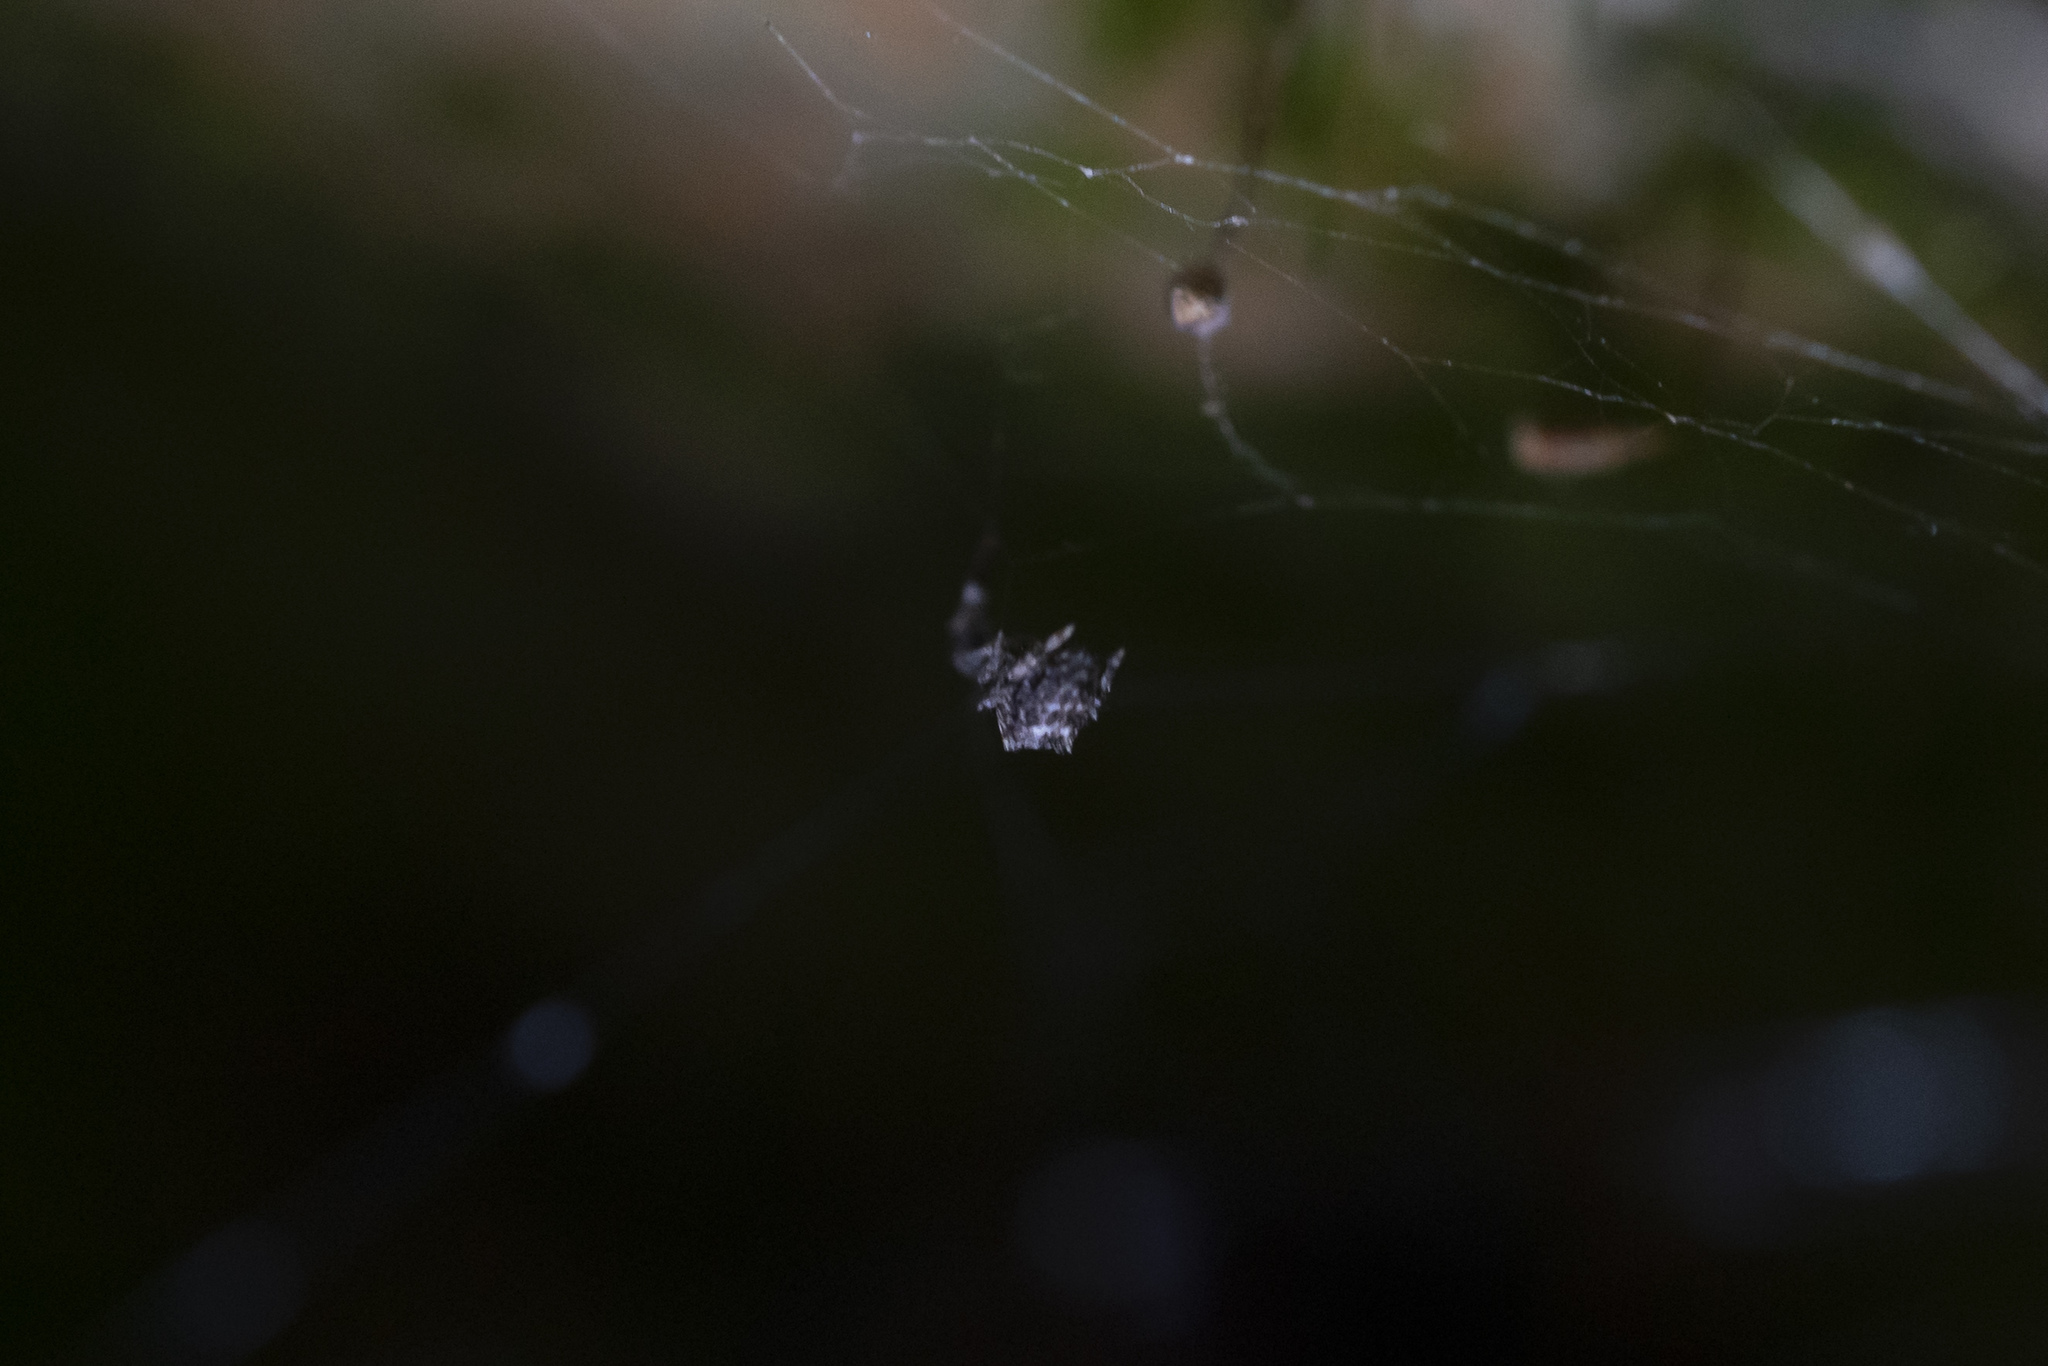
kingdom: Animalia
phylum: Arthropoda
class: Arachnida
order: Araneae
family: Uloboridae
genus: Uloborus
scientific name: Uloborus plumipes
